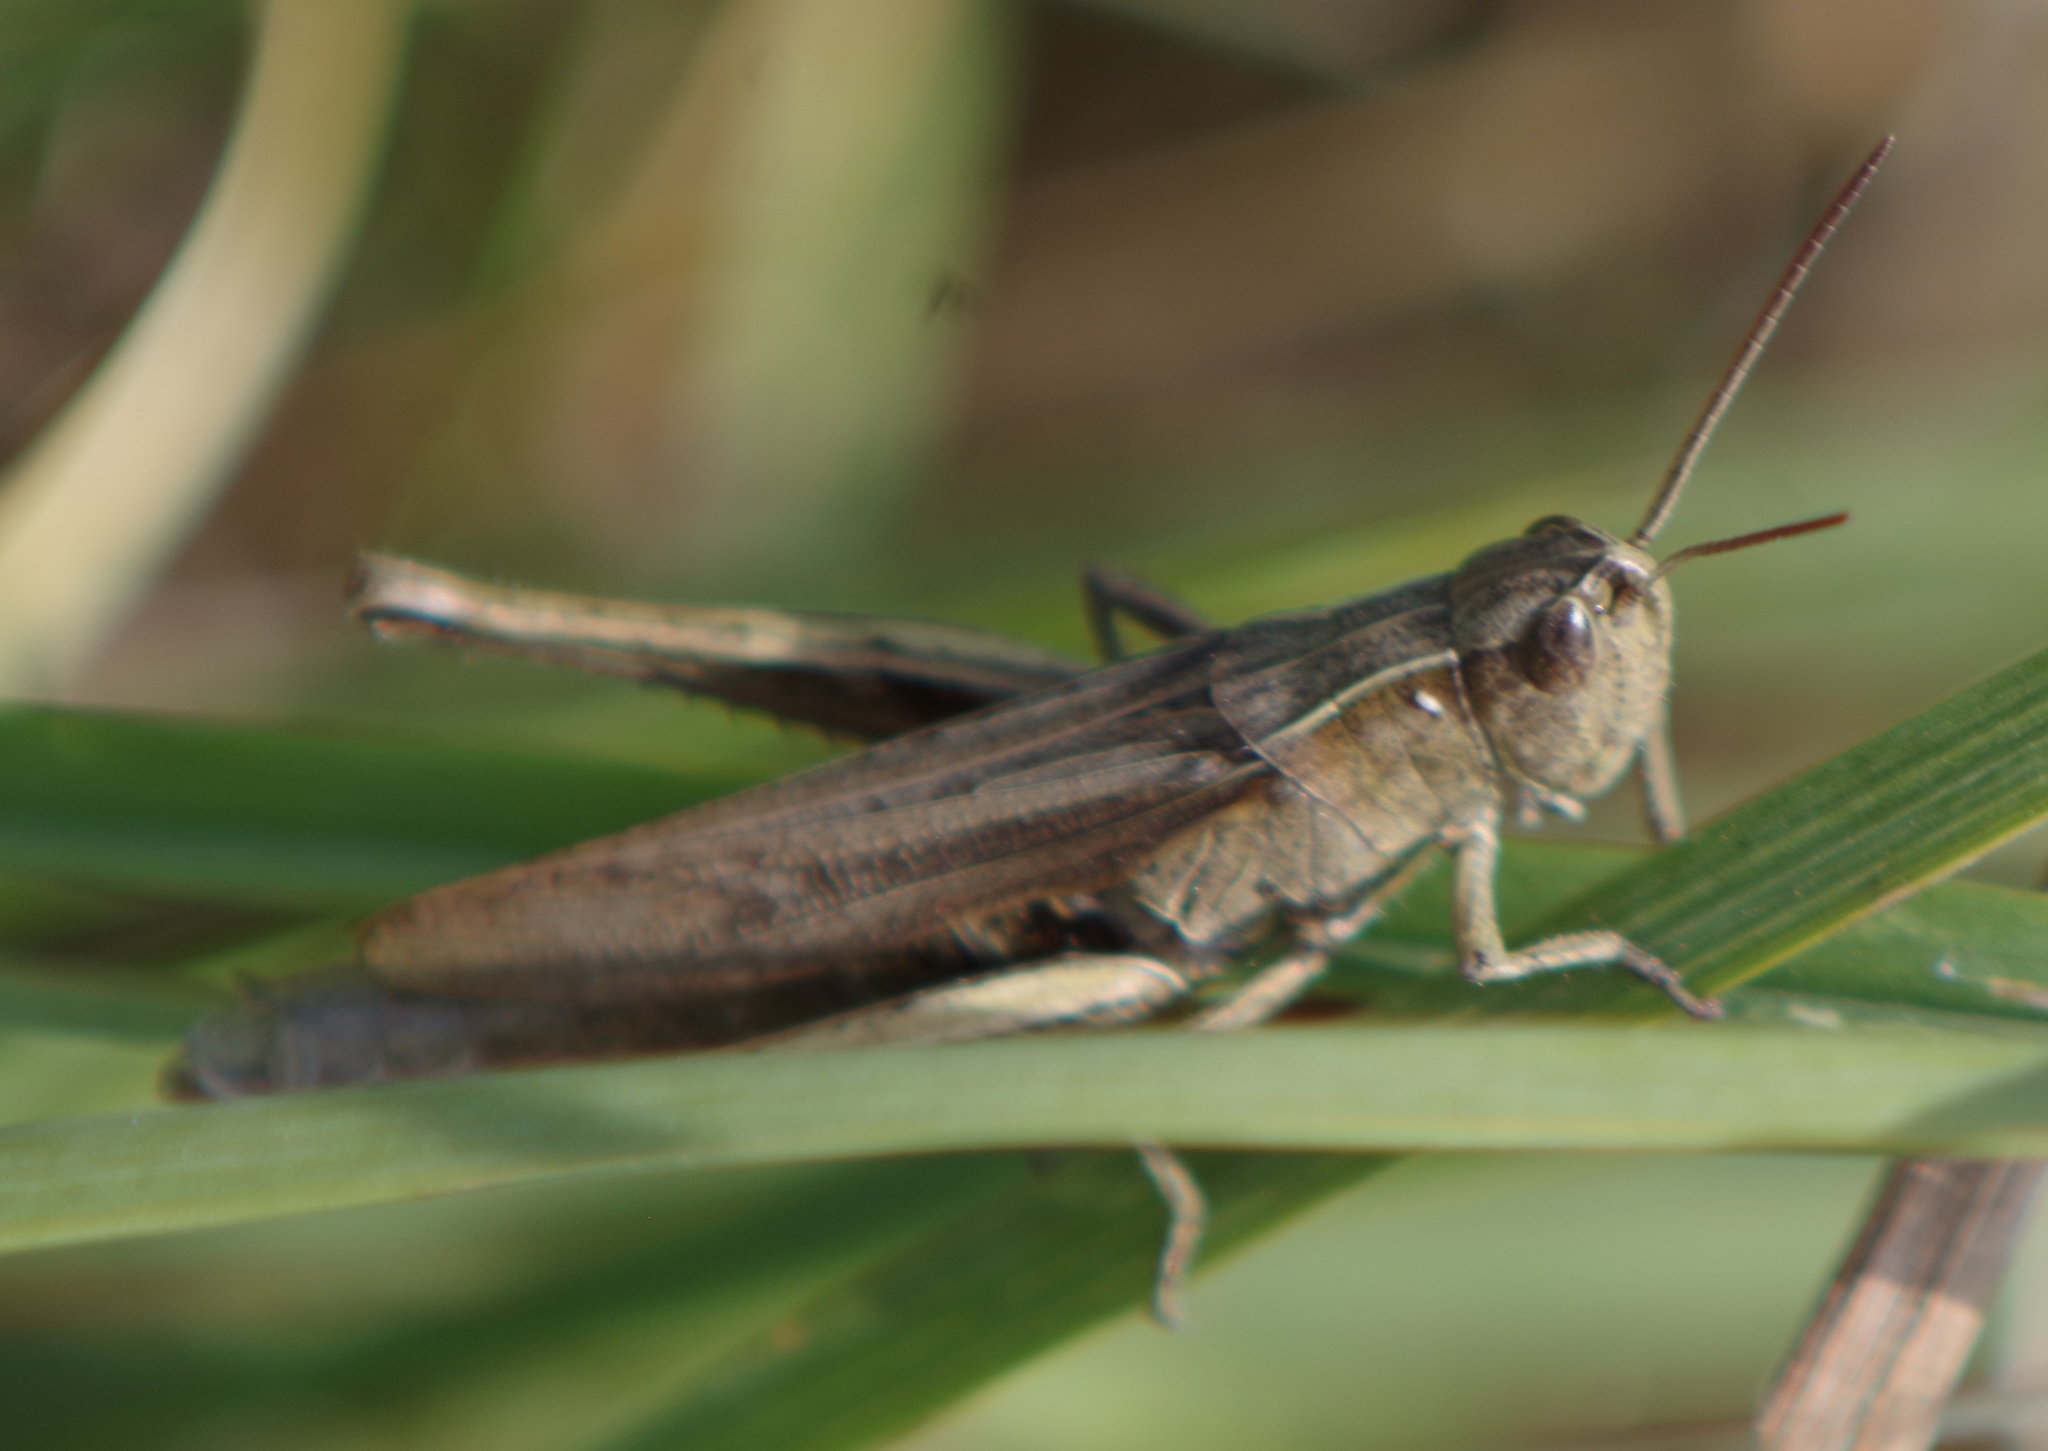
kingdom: Animalia
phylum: Arthropoda
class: Insecta
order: Orthoptera
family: Acrididae
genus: Chorthippus
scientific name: Chorthippus dorsatus
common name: Steppe grasshopper
